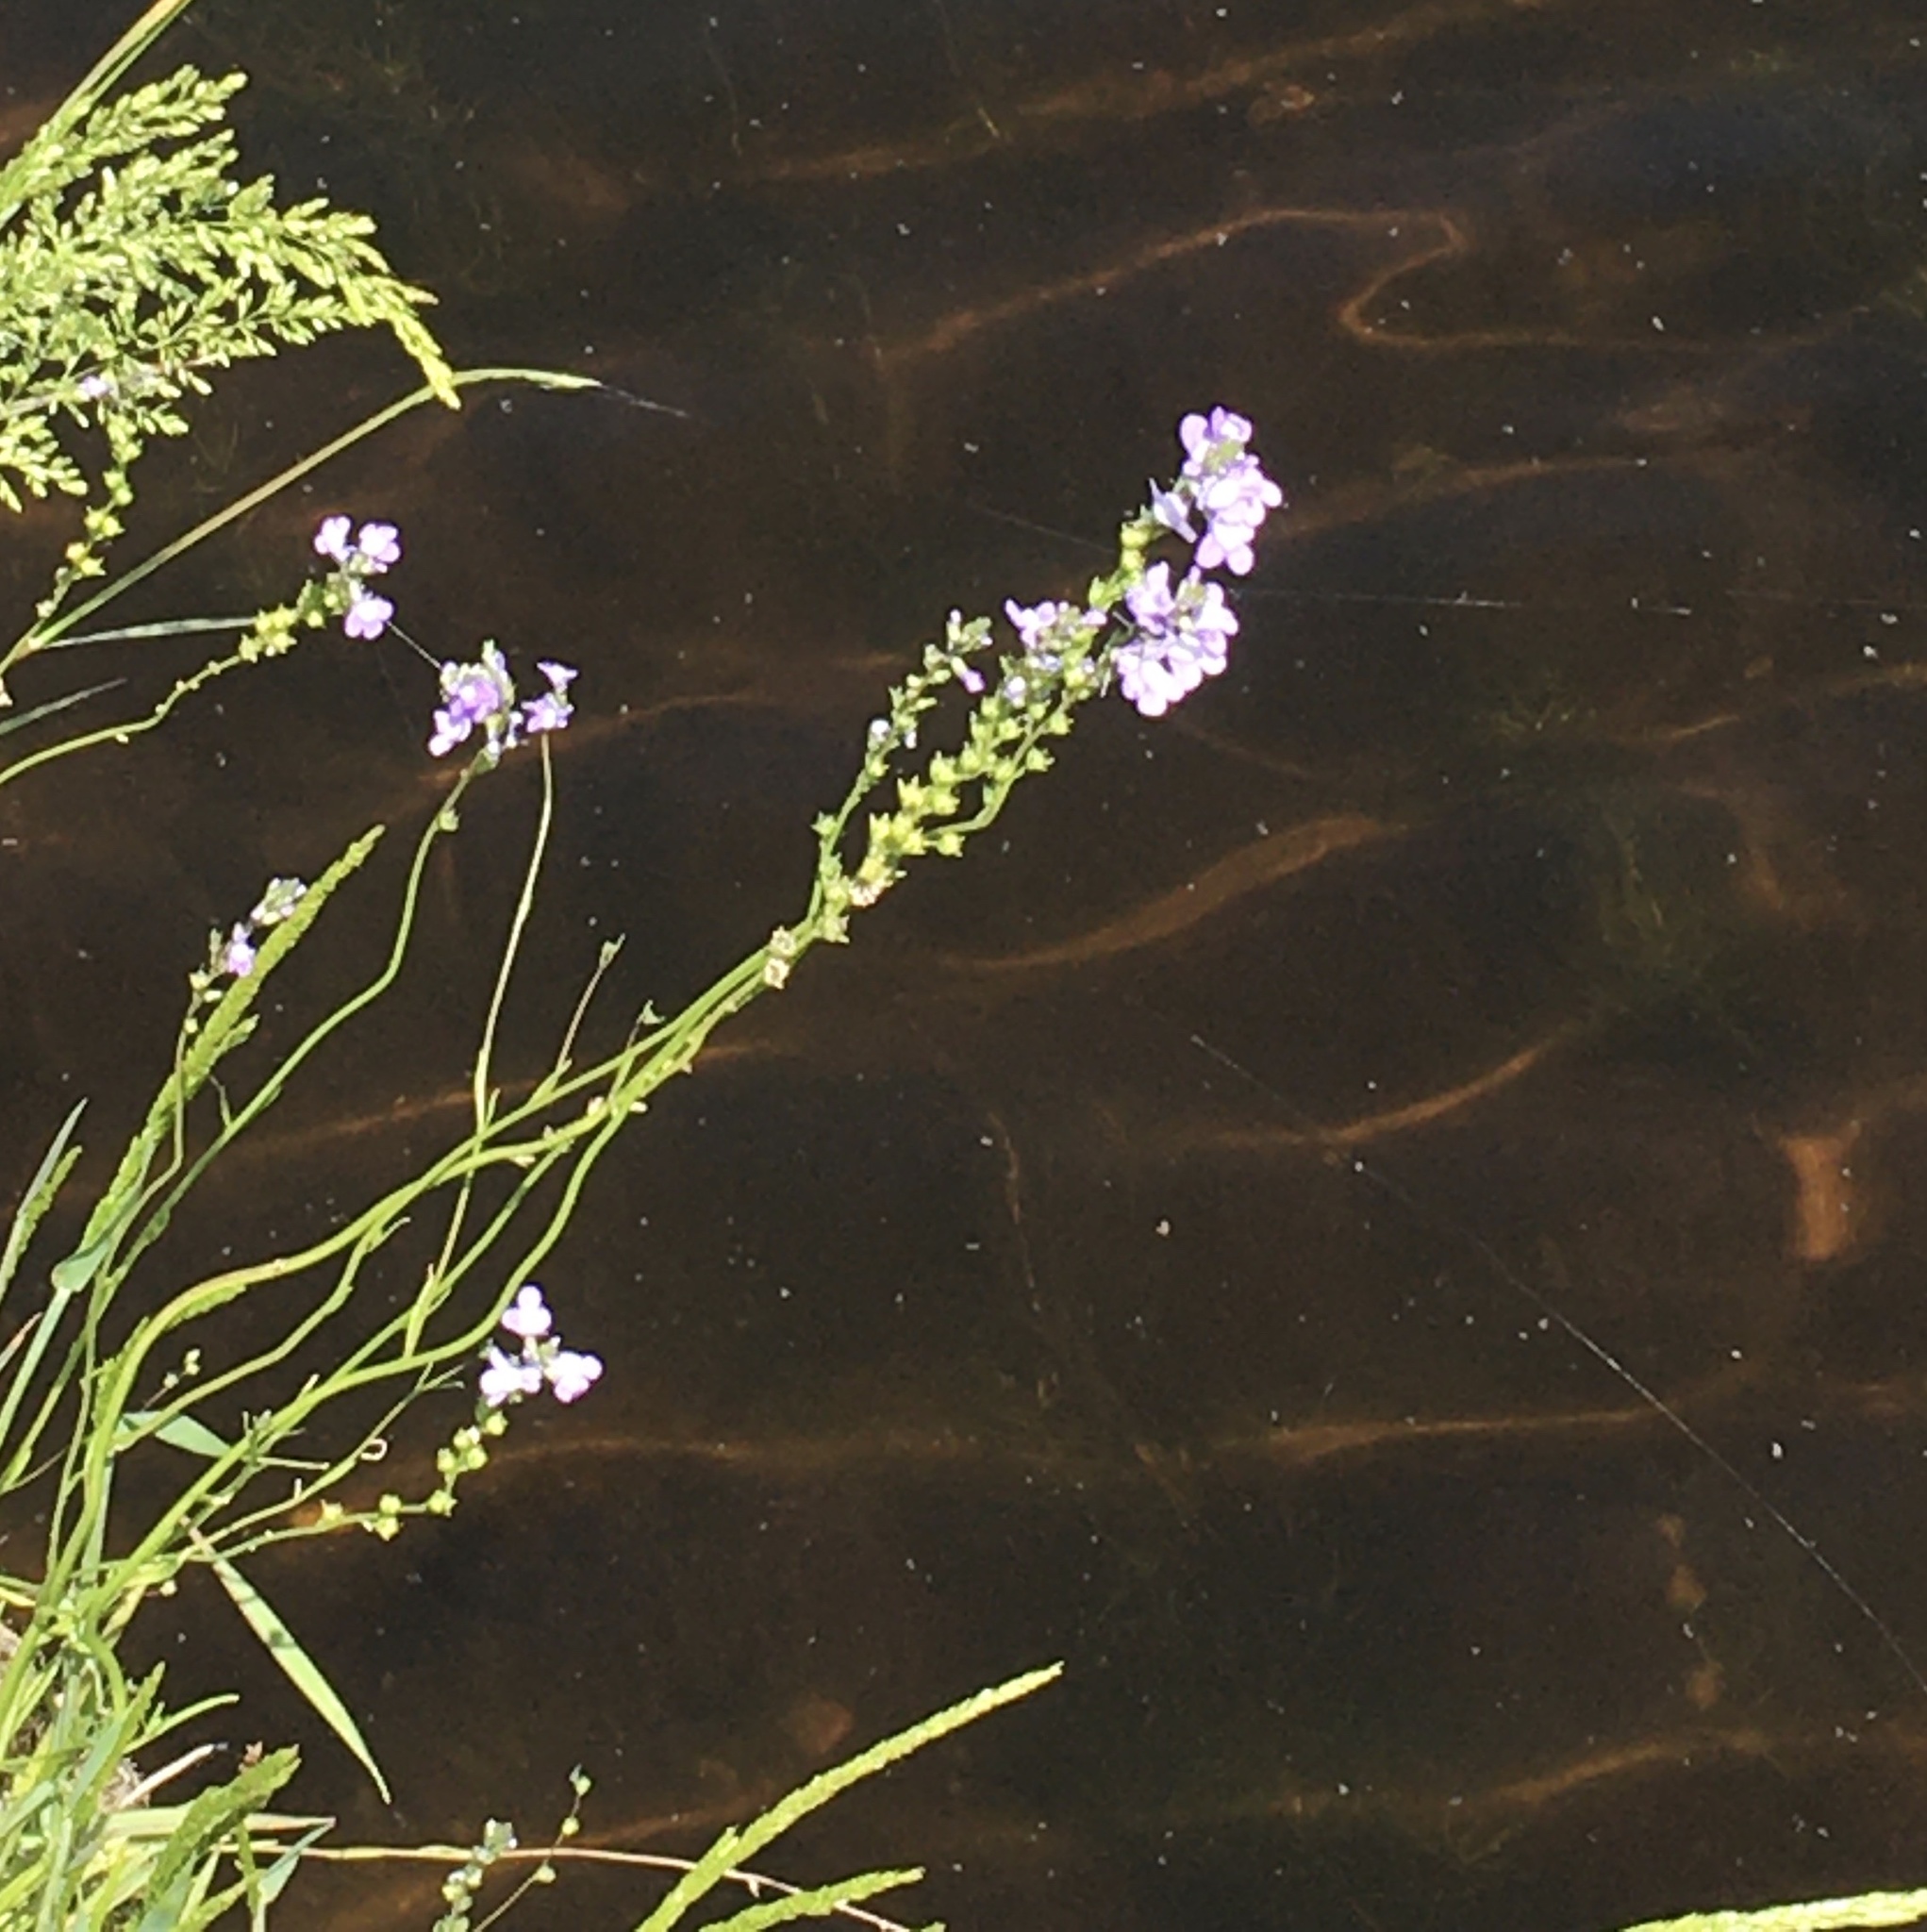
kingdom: Plantae
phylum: Tracheophyta
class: Magnoliopsida
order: Lamiales
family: Plantaginaceae
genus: Nuttallanthus
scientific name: Nuttallanthus canadensis
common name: Blue toadflax
